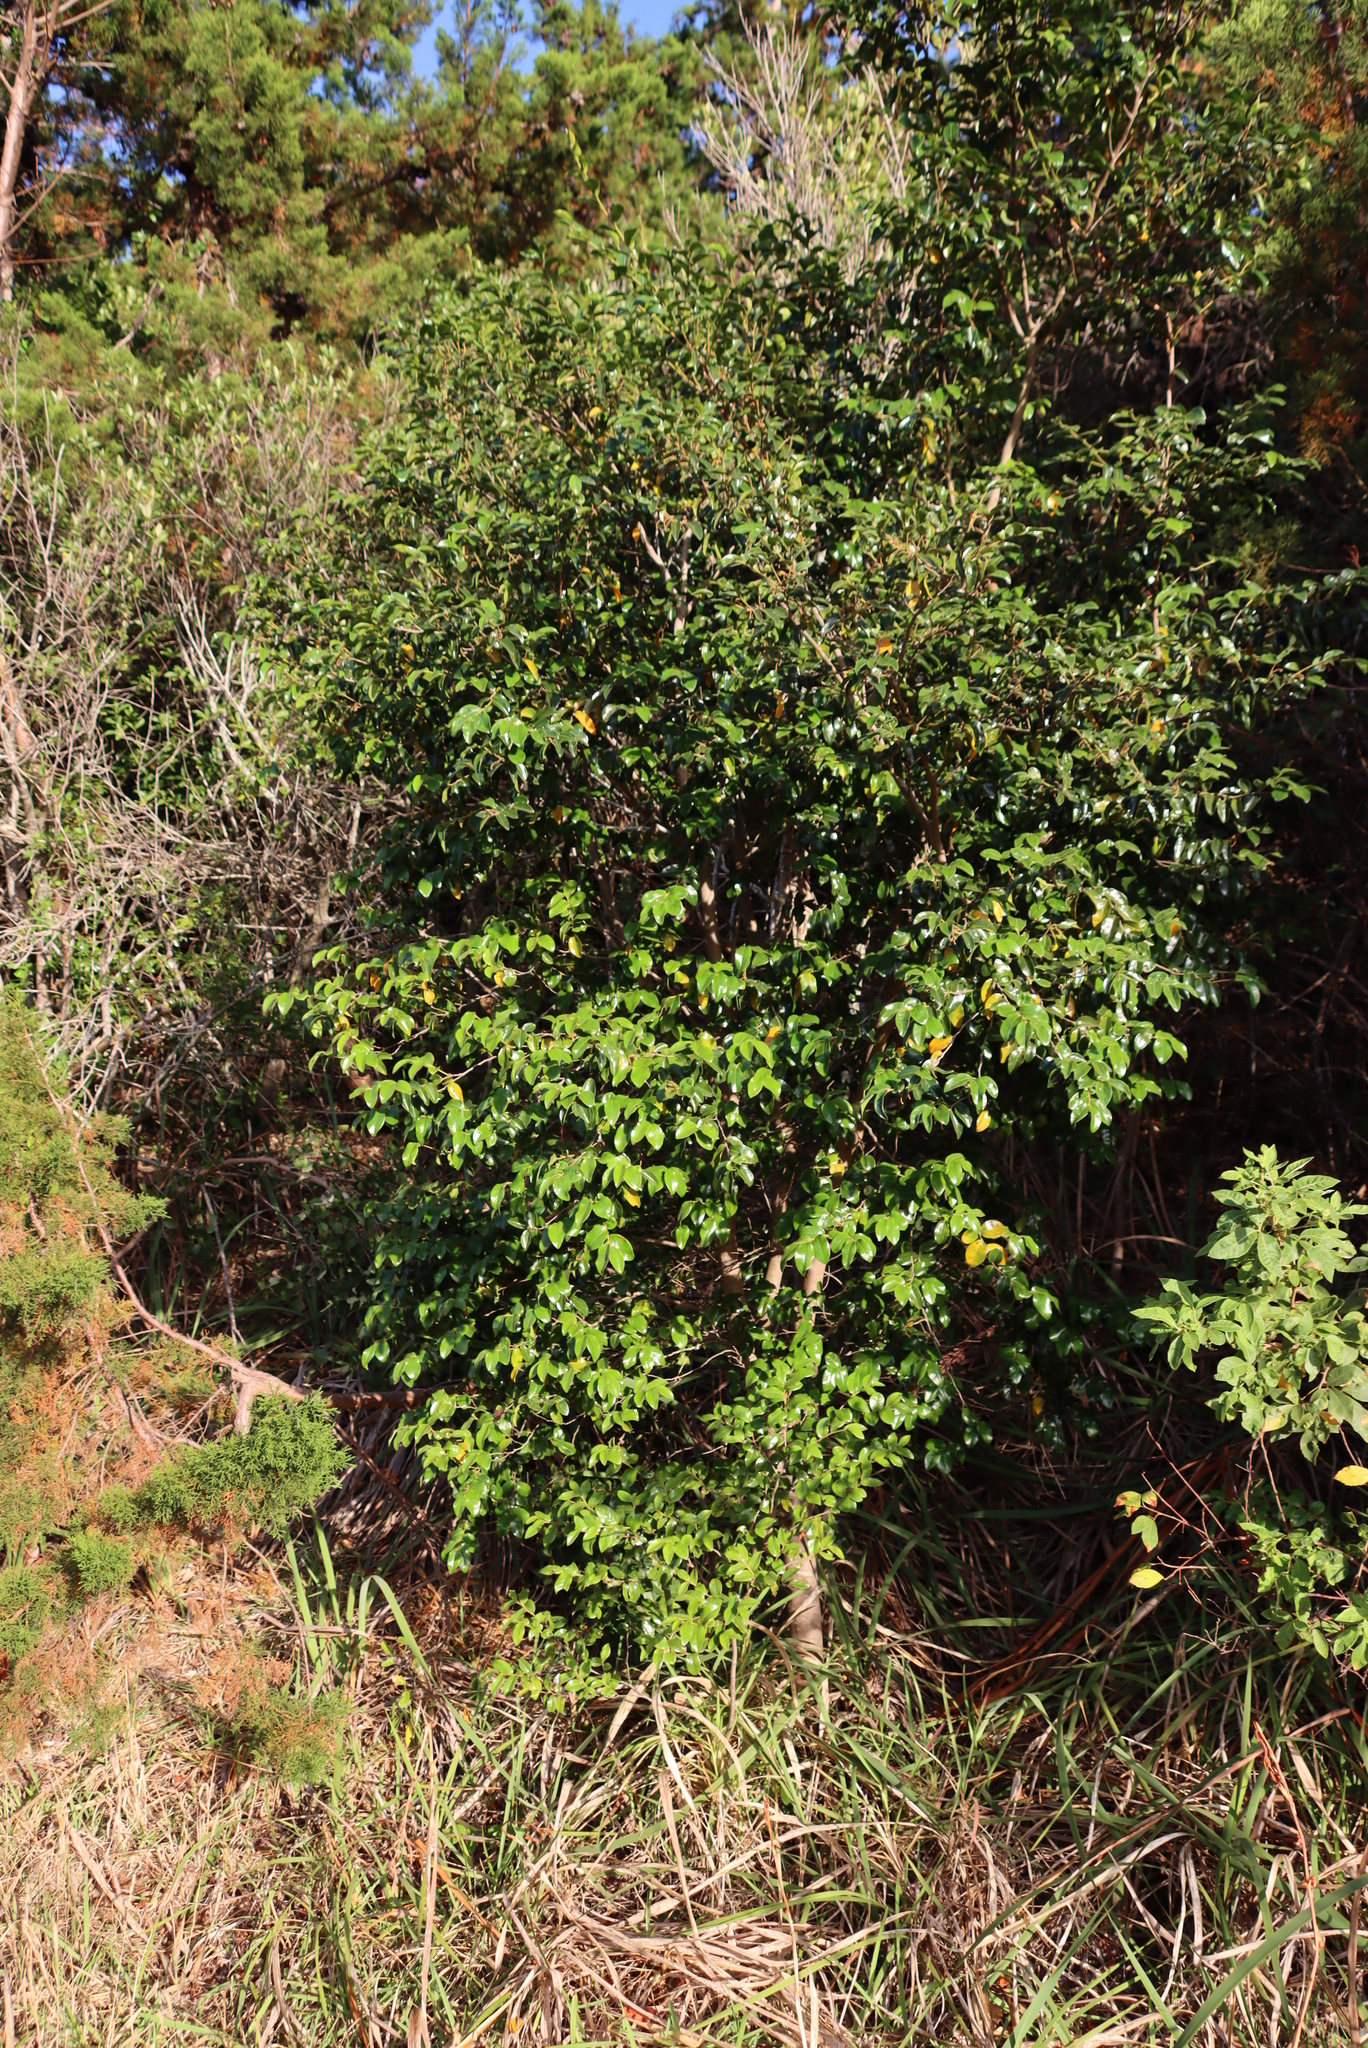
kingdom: Plantae
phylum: Tracheophyta
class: Magnoliopsida
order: Ericales
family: Ebenaceae
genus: Diospyros
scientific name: Diospyros whyteana
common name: Bladder-nut
